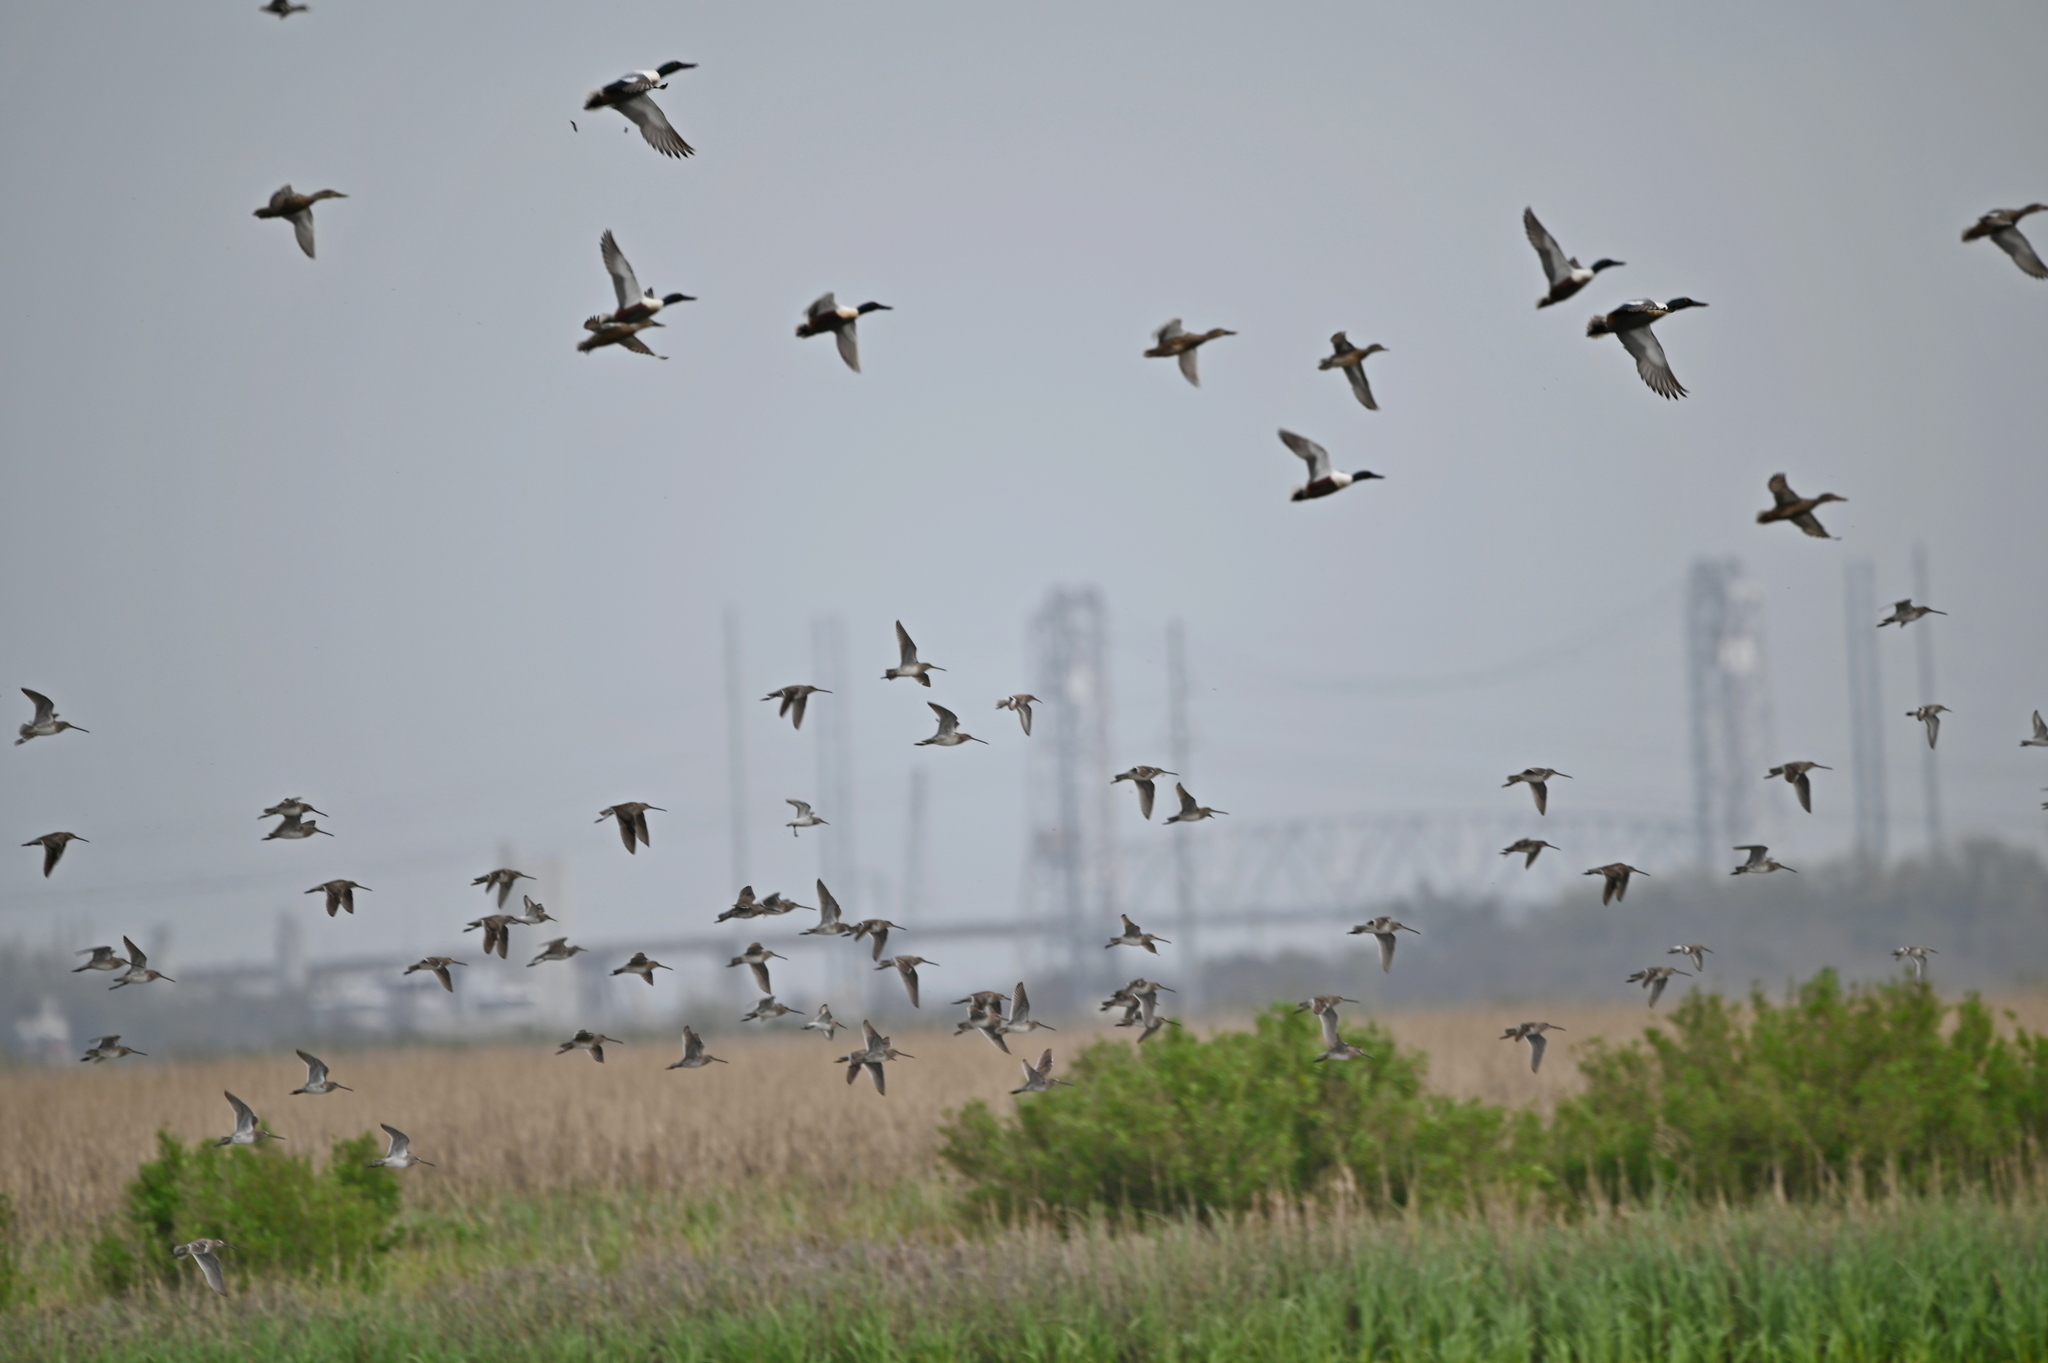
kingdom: Animalia
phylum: Chordata
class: Aves
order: Charadriiformes
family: Scolopacidae
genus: Limnodromus
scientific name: Limnodromus scolopaceus
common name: Long-billed dowitcher
